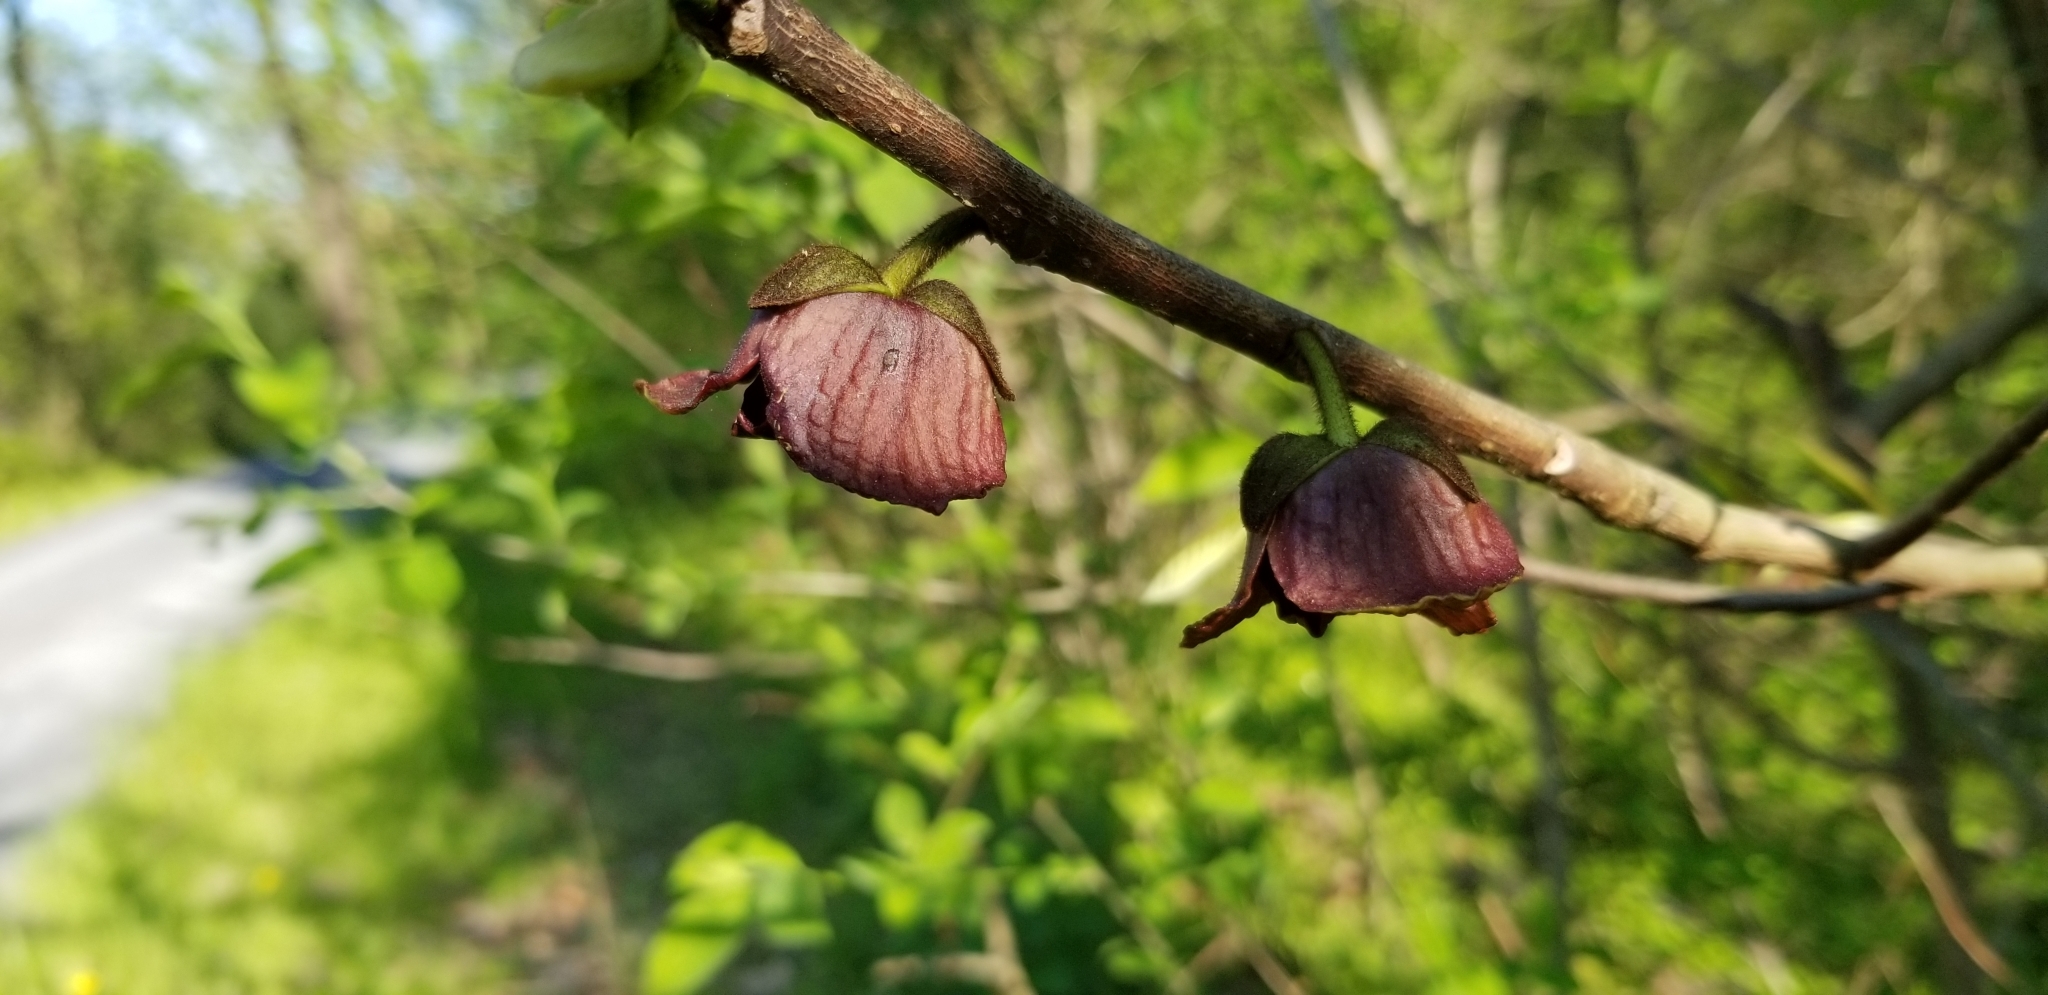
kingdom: Plantae
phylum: Tracheophyta
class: Magnoliopsida
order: Magnoliales
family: Annonaceae
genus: Asimina
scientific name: Asimina triloba
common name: Dog-banana
